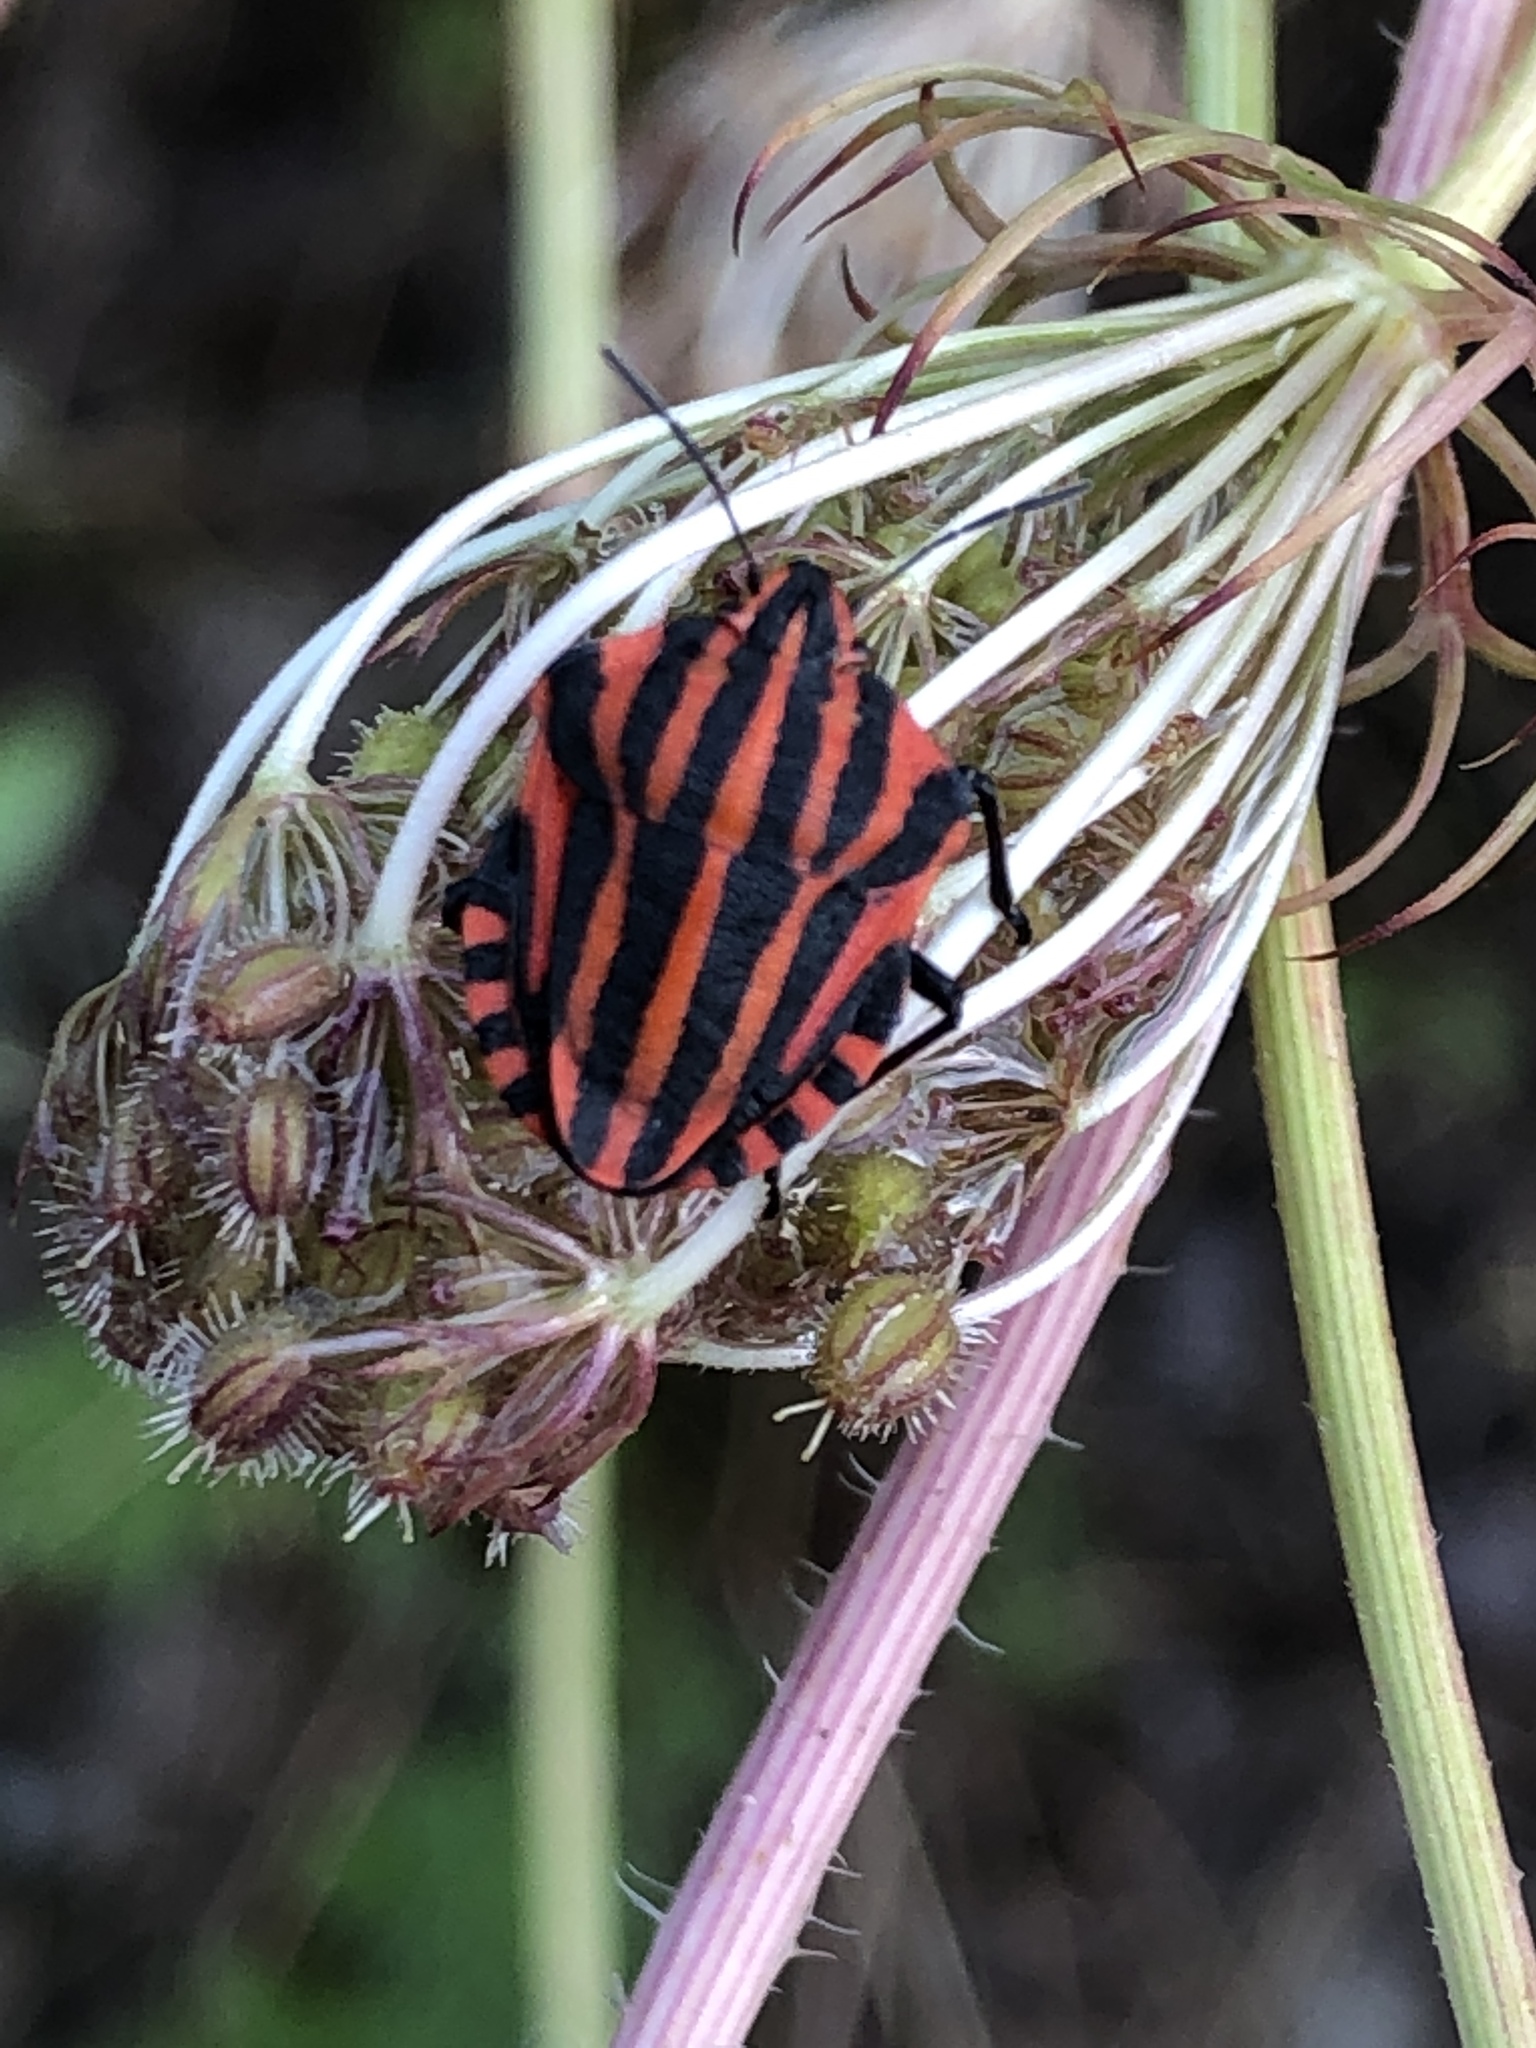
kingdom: Animalia
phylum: Arthropoda
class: Insecta
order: Hemiptera
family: Pentatomidae
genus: Graphosoma
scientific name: Graphosoma italicum
